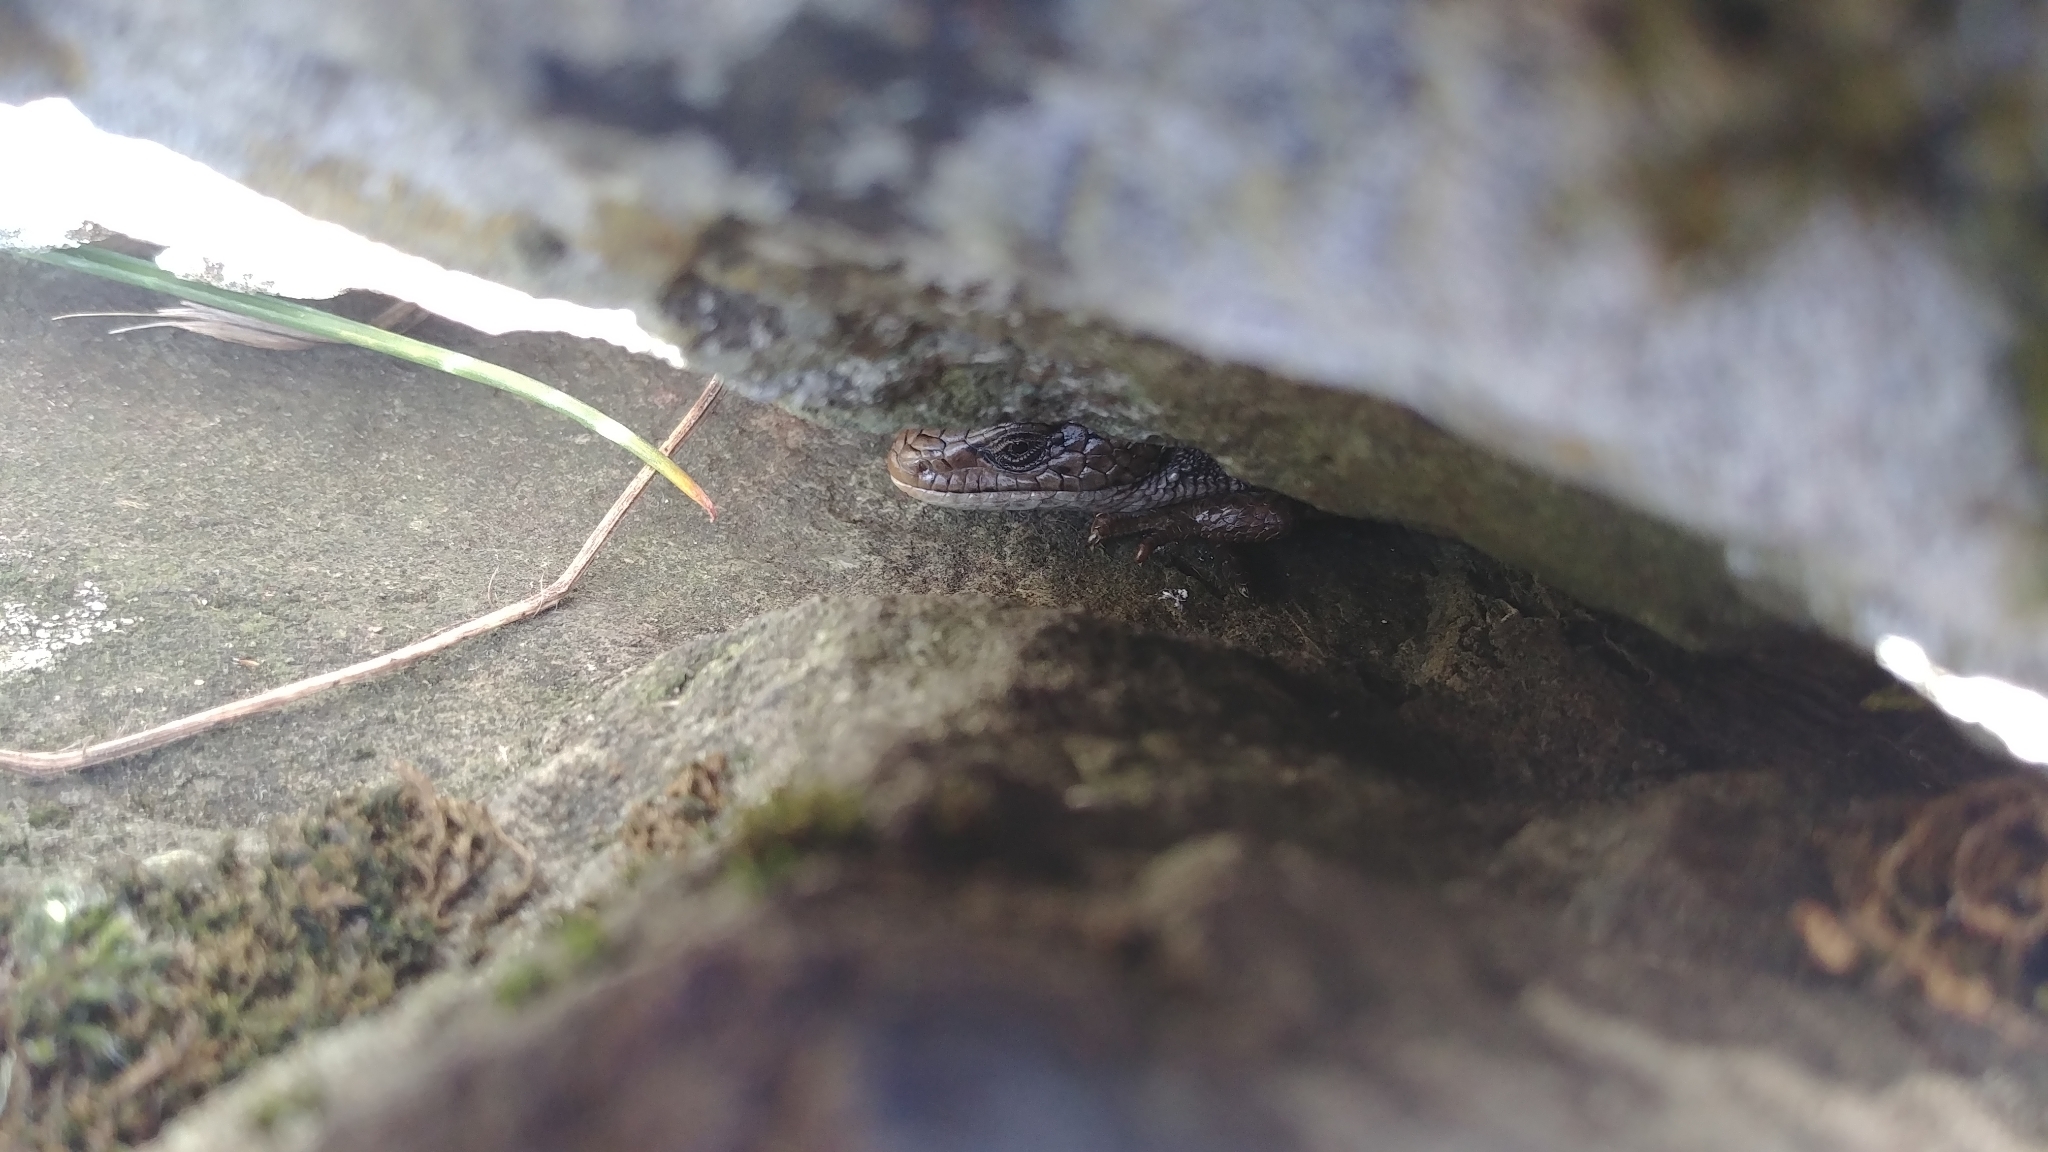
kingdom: Animalia
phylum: Chordata
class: Squamata
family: Anguidae
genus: Elgaria
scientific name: Elgaria coerulea
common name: Northern alligator lizard
